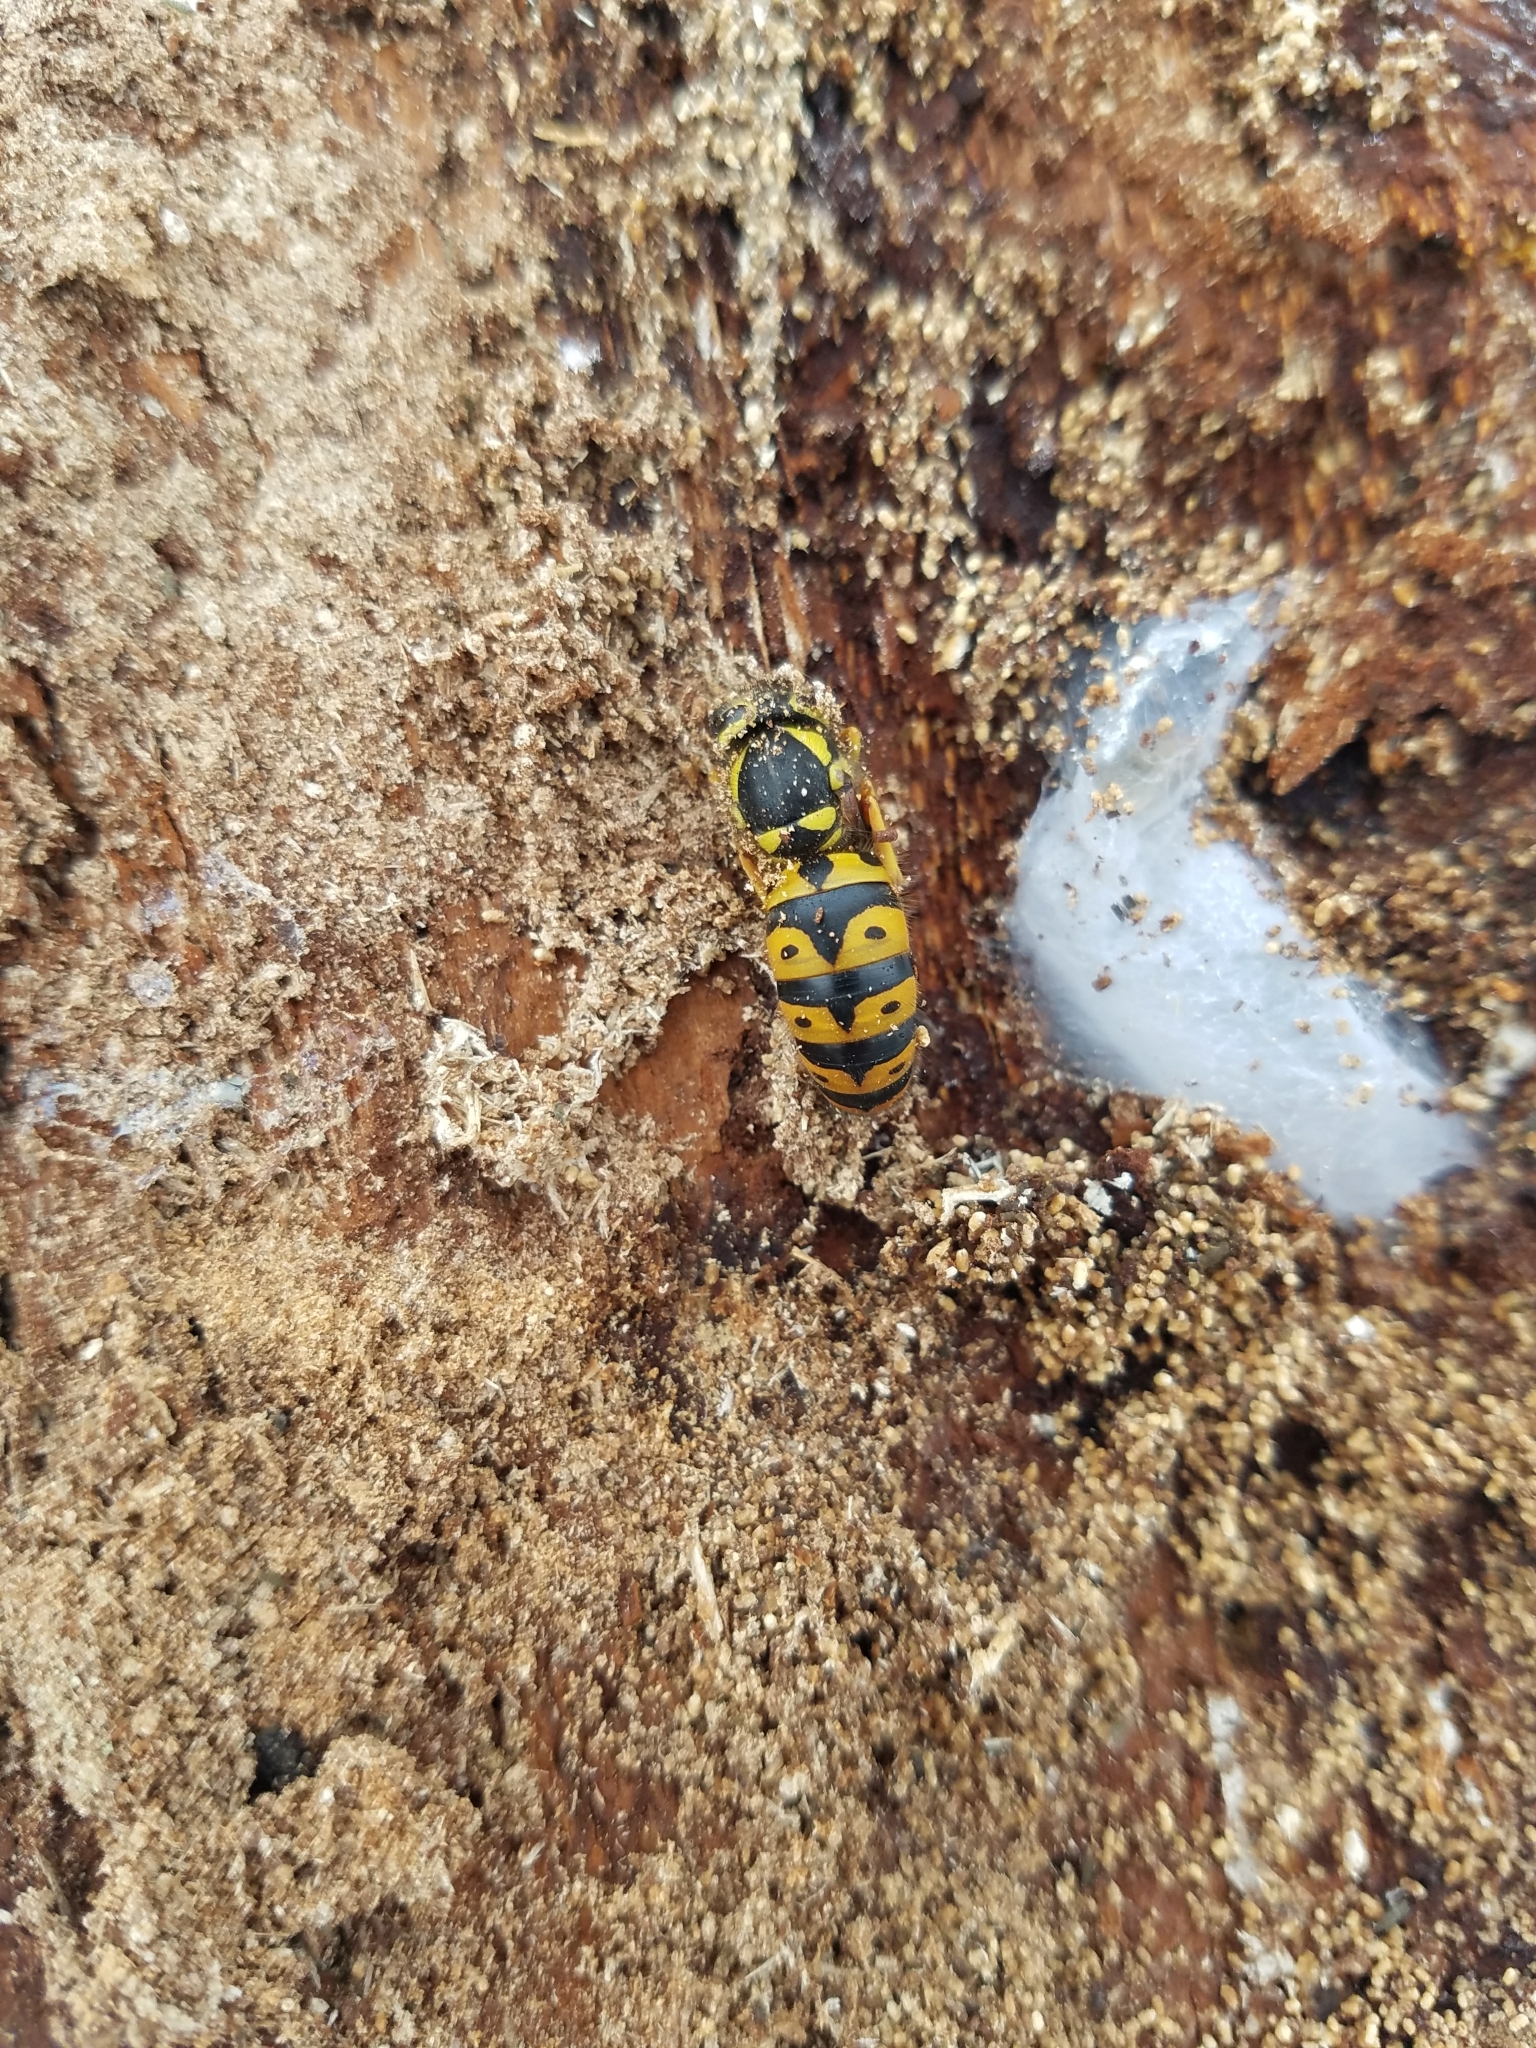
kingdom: Animalia
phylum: Arthropoda
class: Insecta
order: Hymenoptera
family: Vespidae
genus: Vespula
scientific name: Vespula pensylvanica
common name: Western yellowjacket
